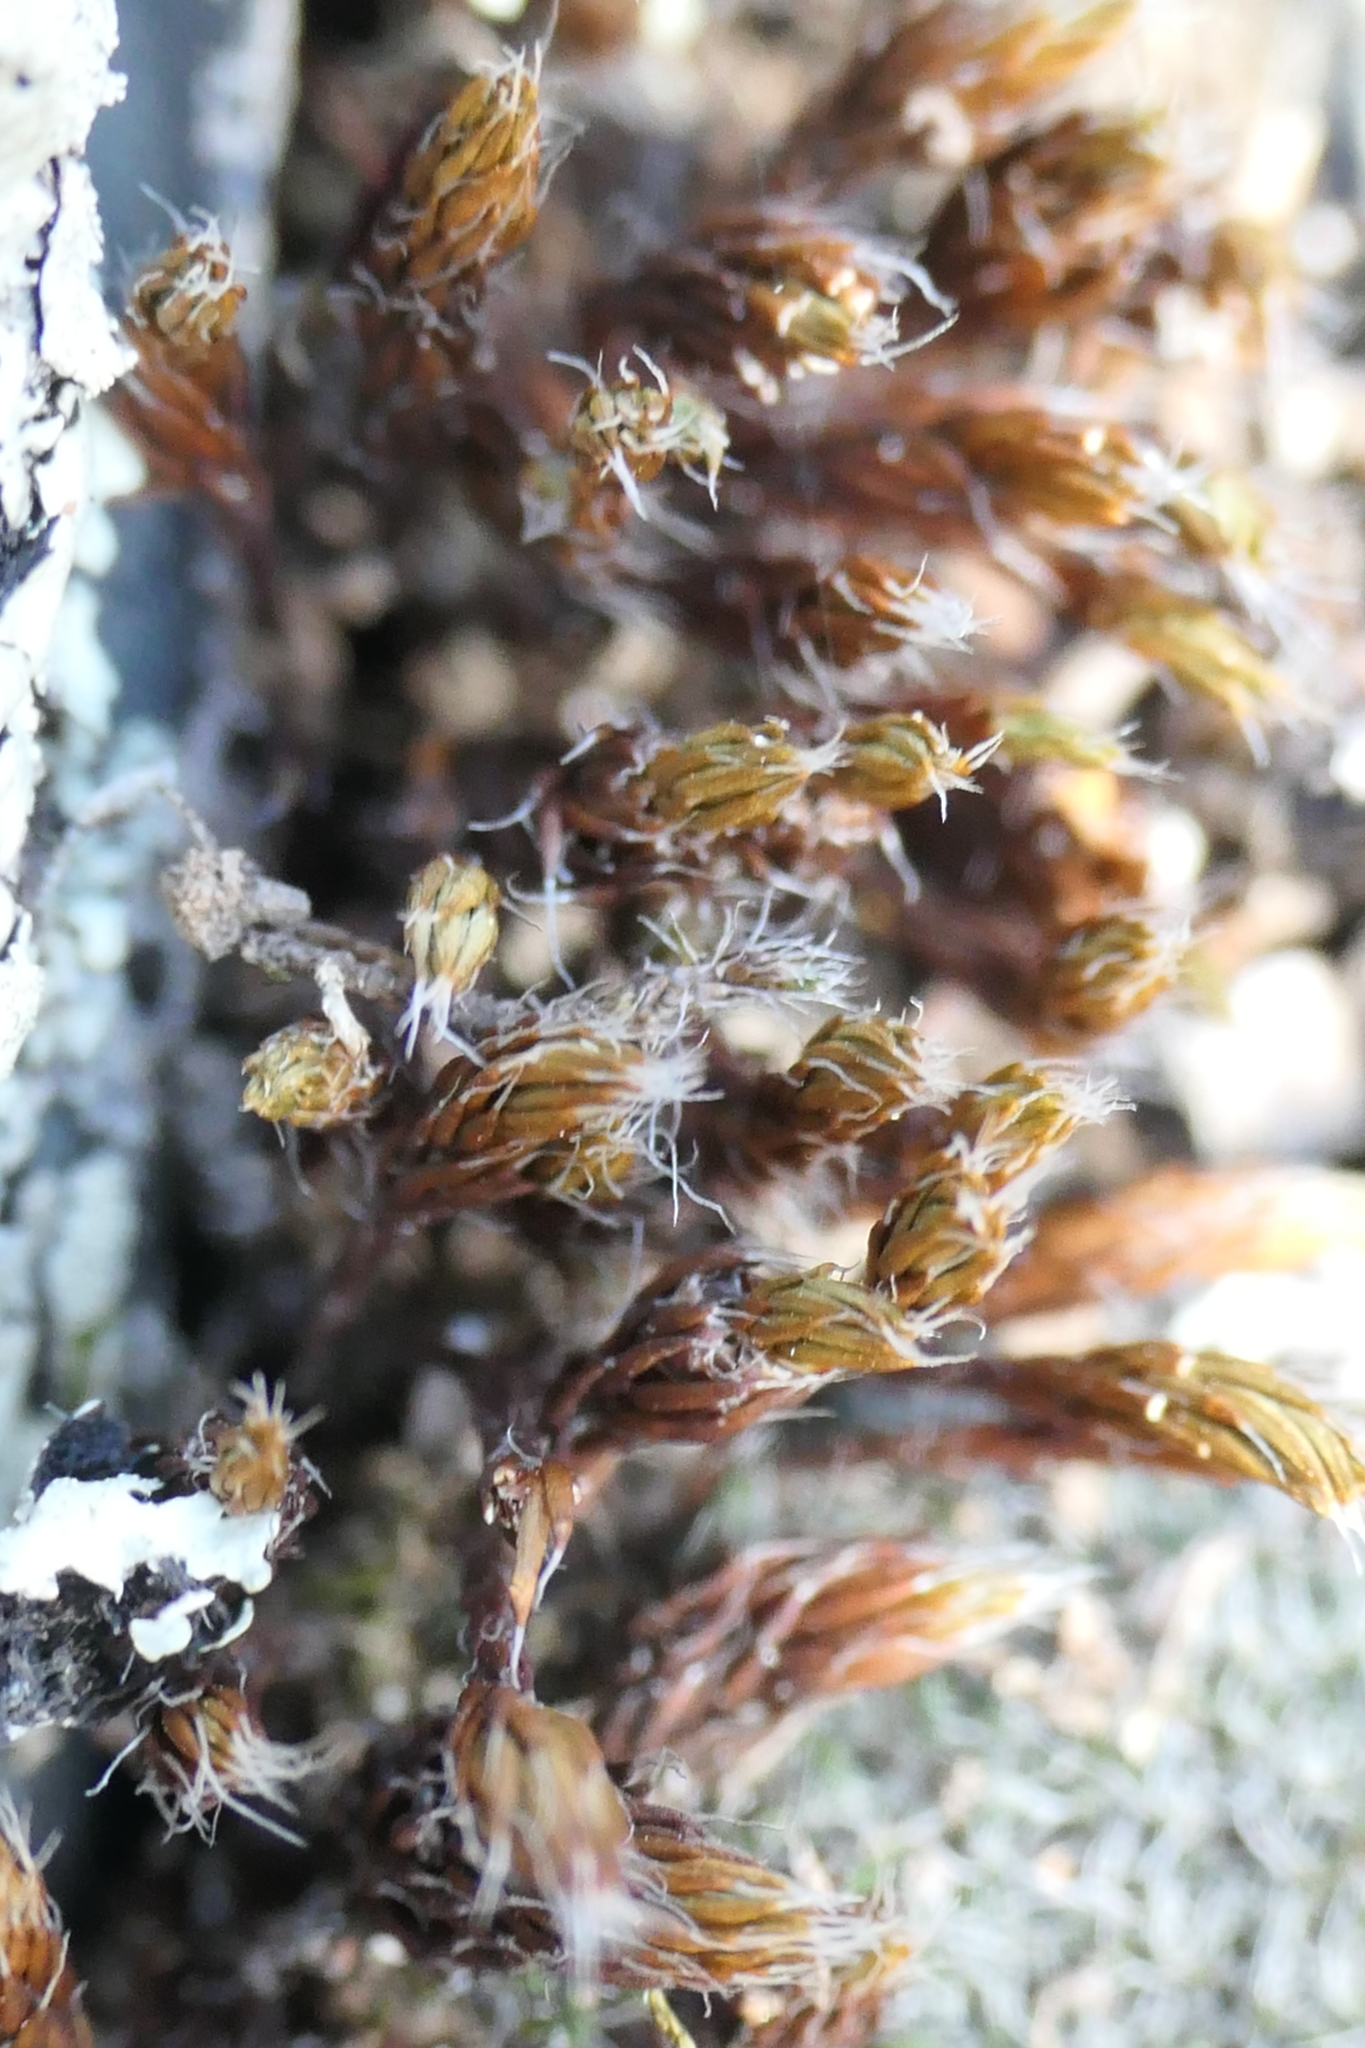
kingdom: Plantae
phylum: Bryophyta
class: Polytrichopsida
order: Polytrichales
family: Polytrichaceae
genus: Polytrichum
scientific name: Polytrichum piliferum
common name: Bristly haircap
